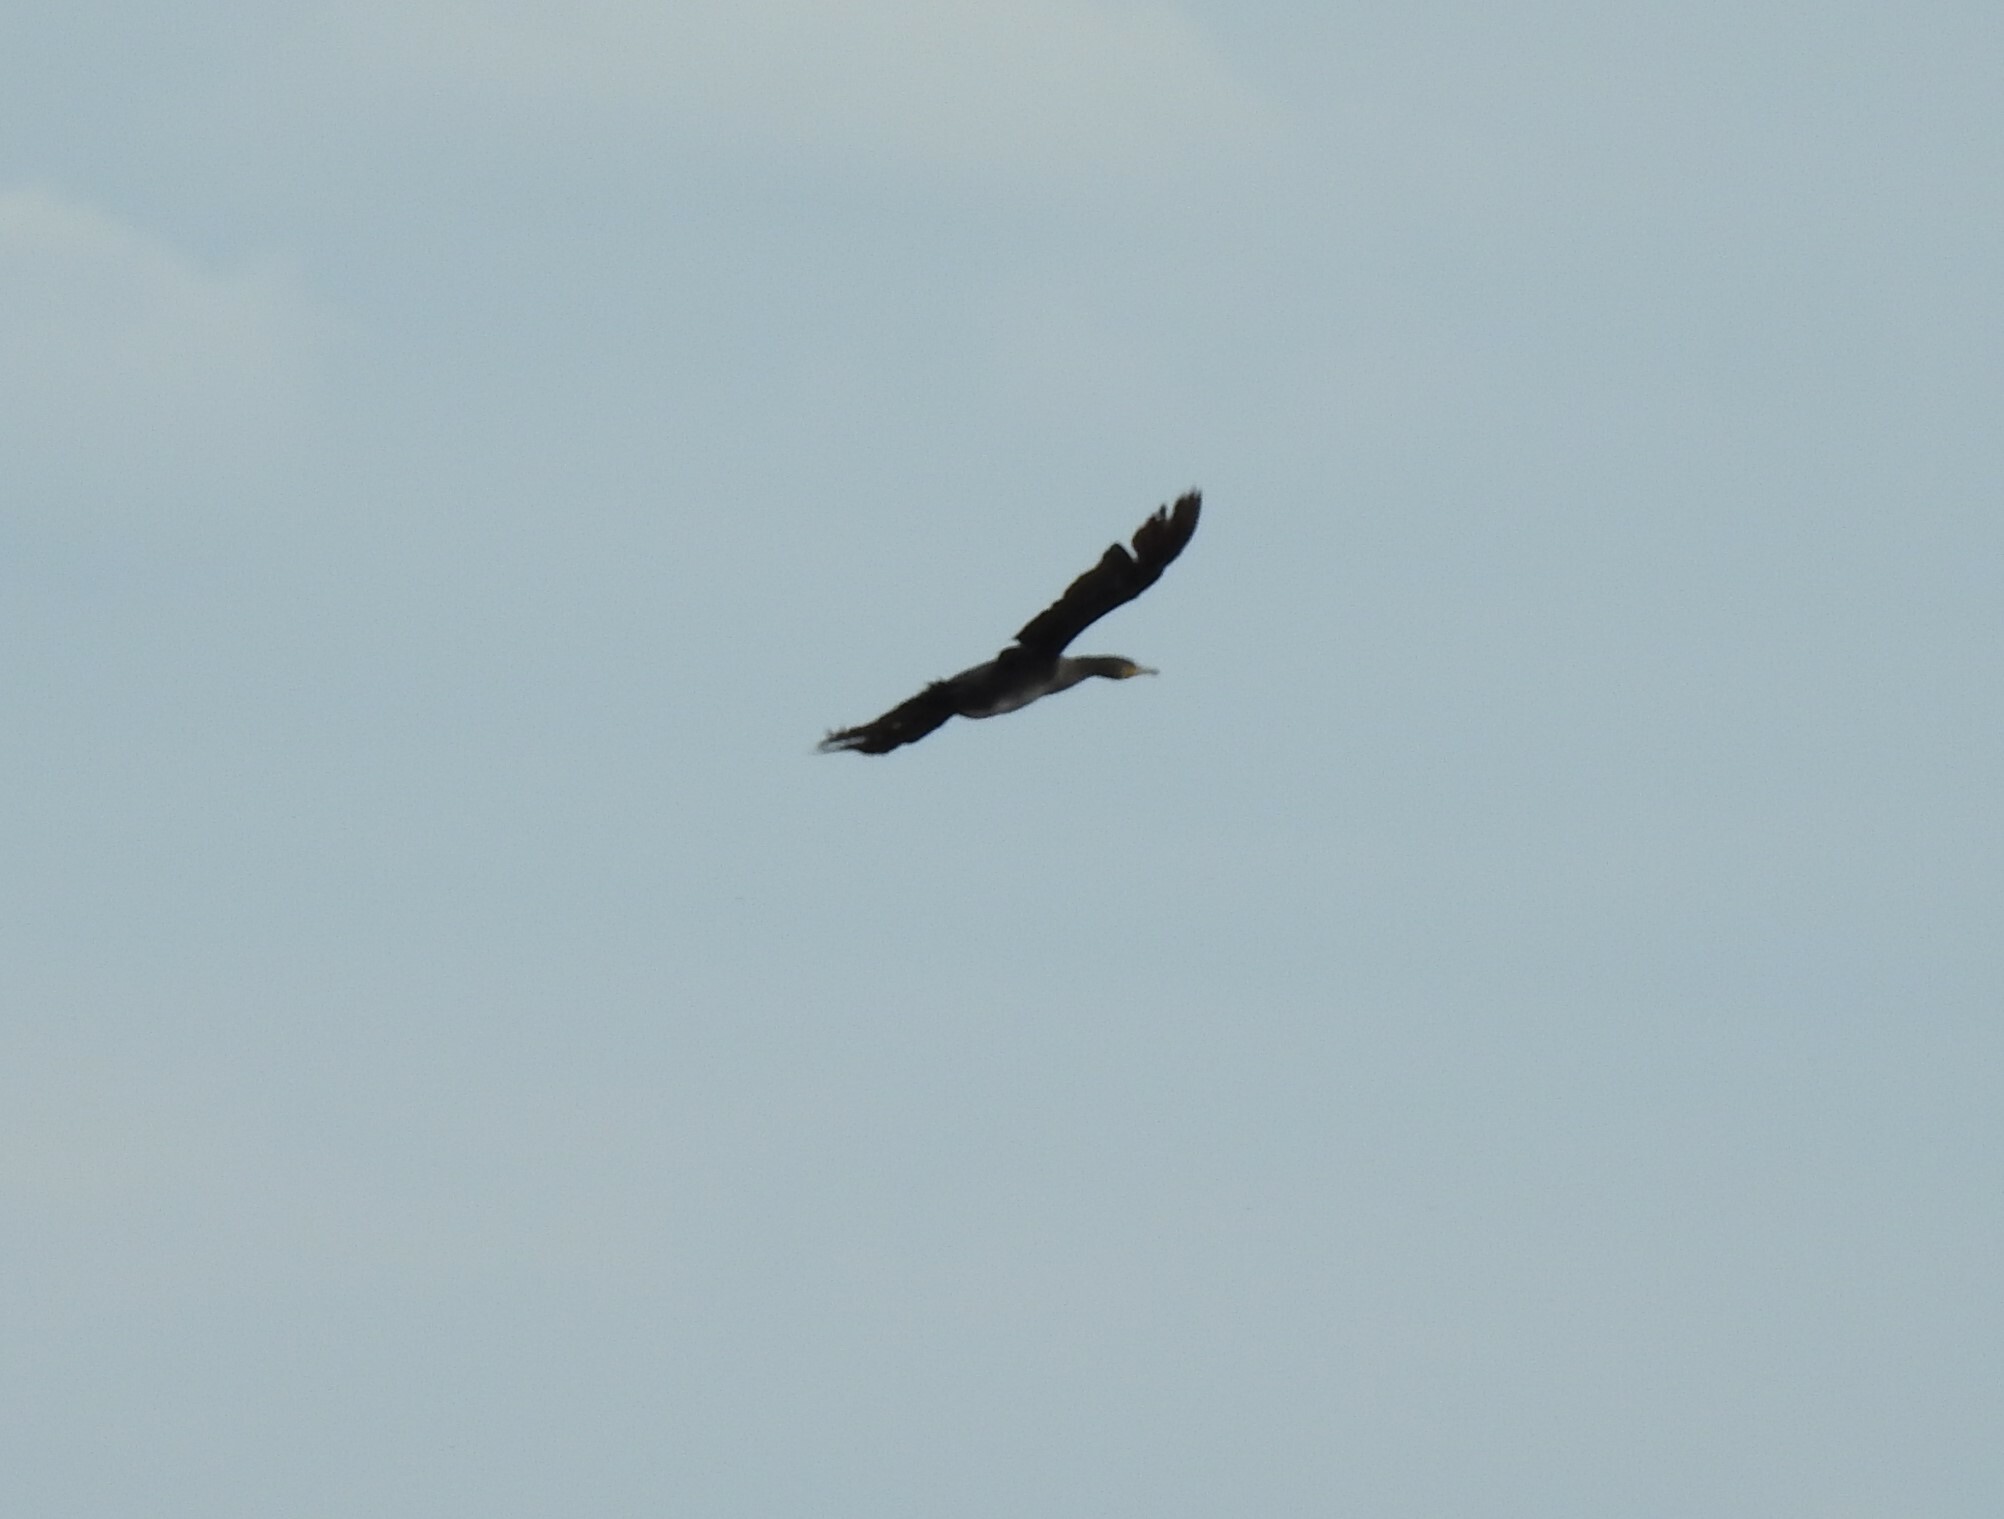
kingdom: Animalia
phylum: Chordata
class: Aves
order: Suliformes
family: Phalacrocoracidae
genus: Phalacrocorax
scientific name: Phalacrocorax carbo
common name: Great cormorant
